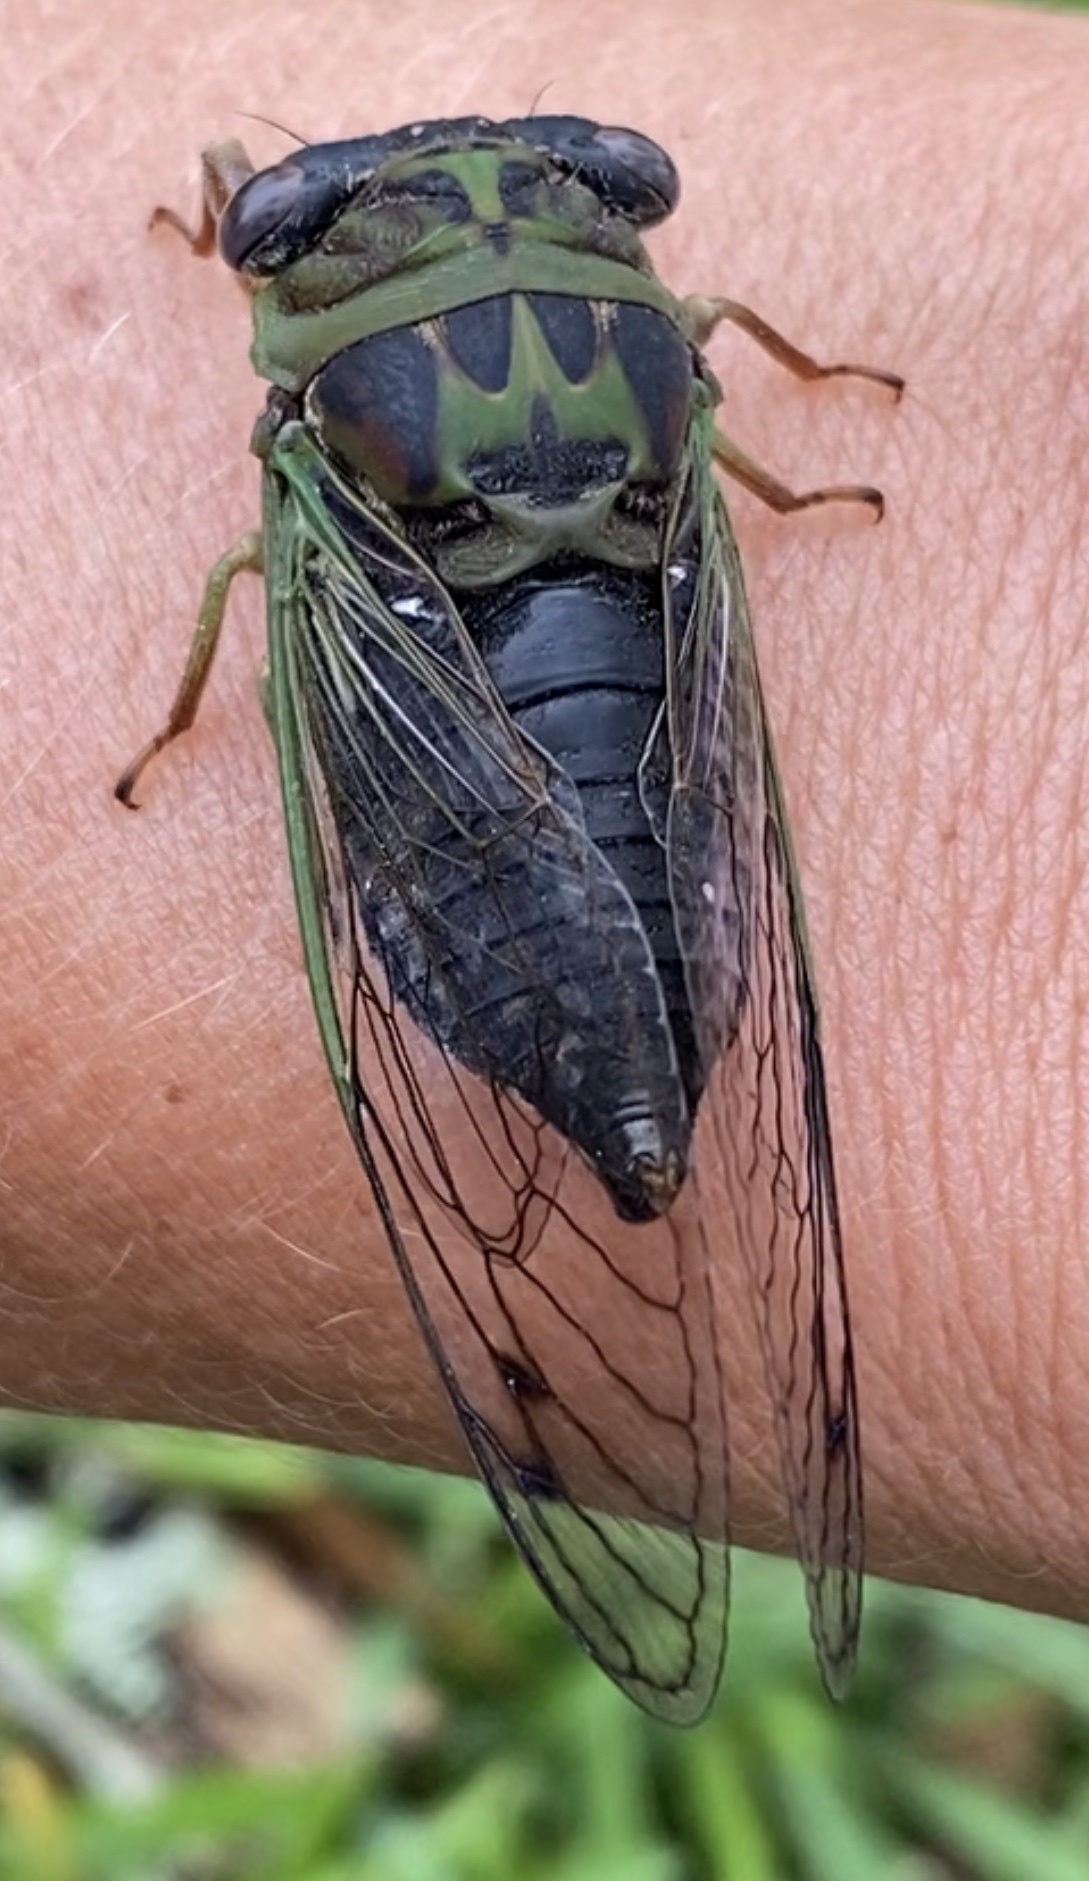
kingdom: Animalia
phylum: Arthropoda
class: Insecta
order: Hemiptera
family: Cicadidae
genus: Neotibicen
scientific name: Neotibicen davisi
